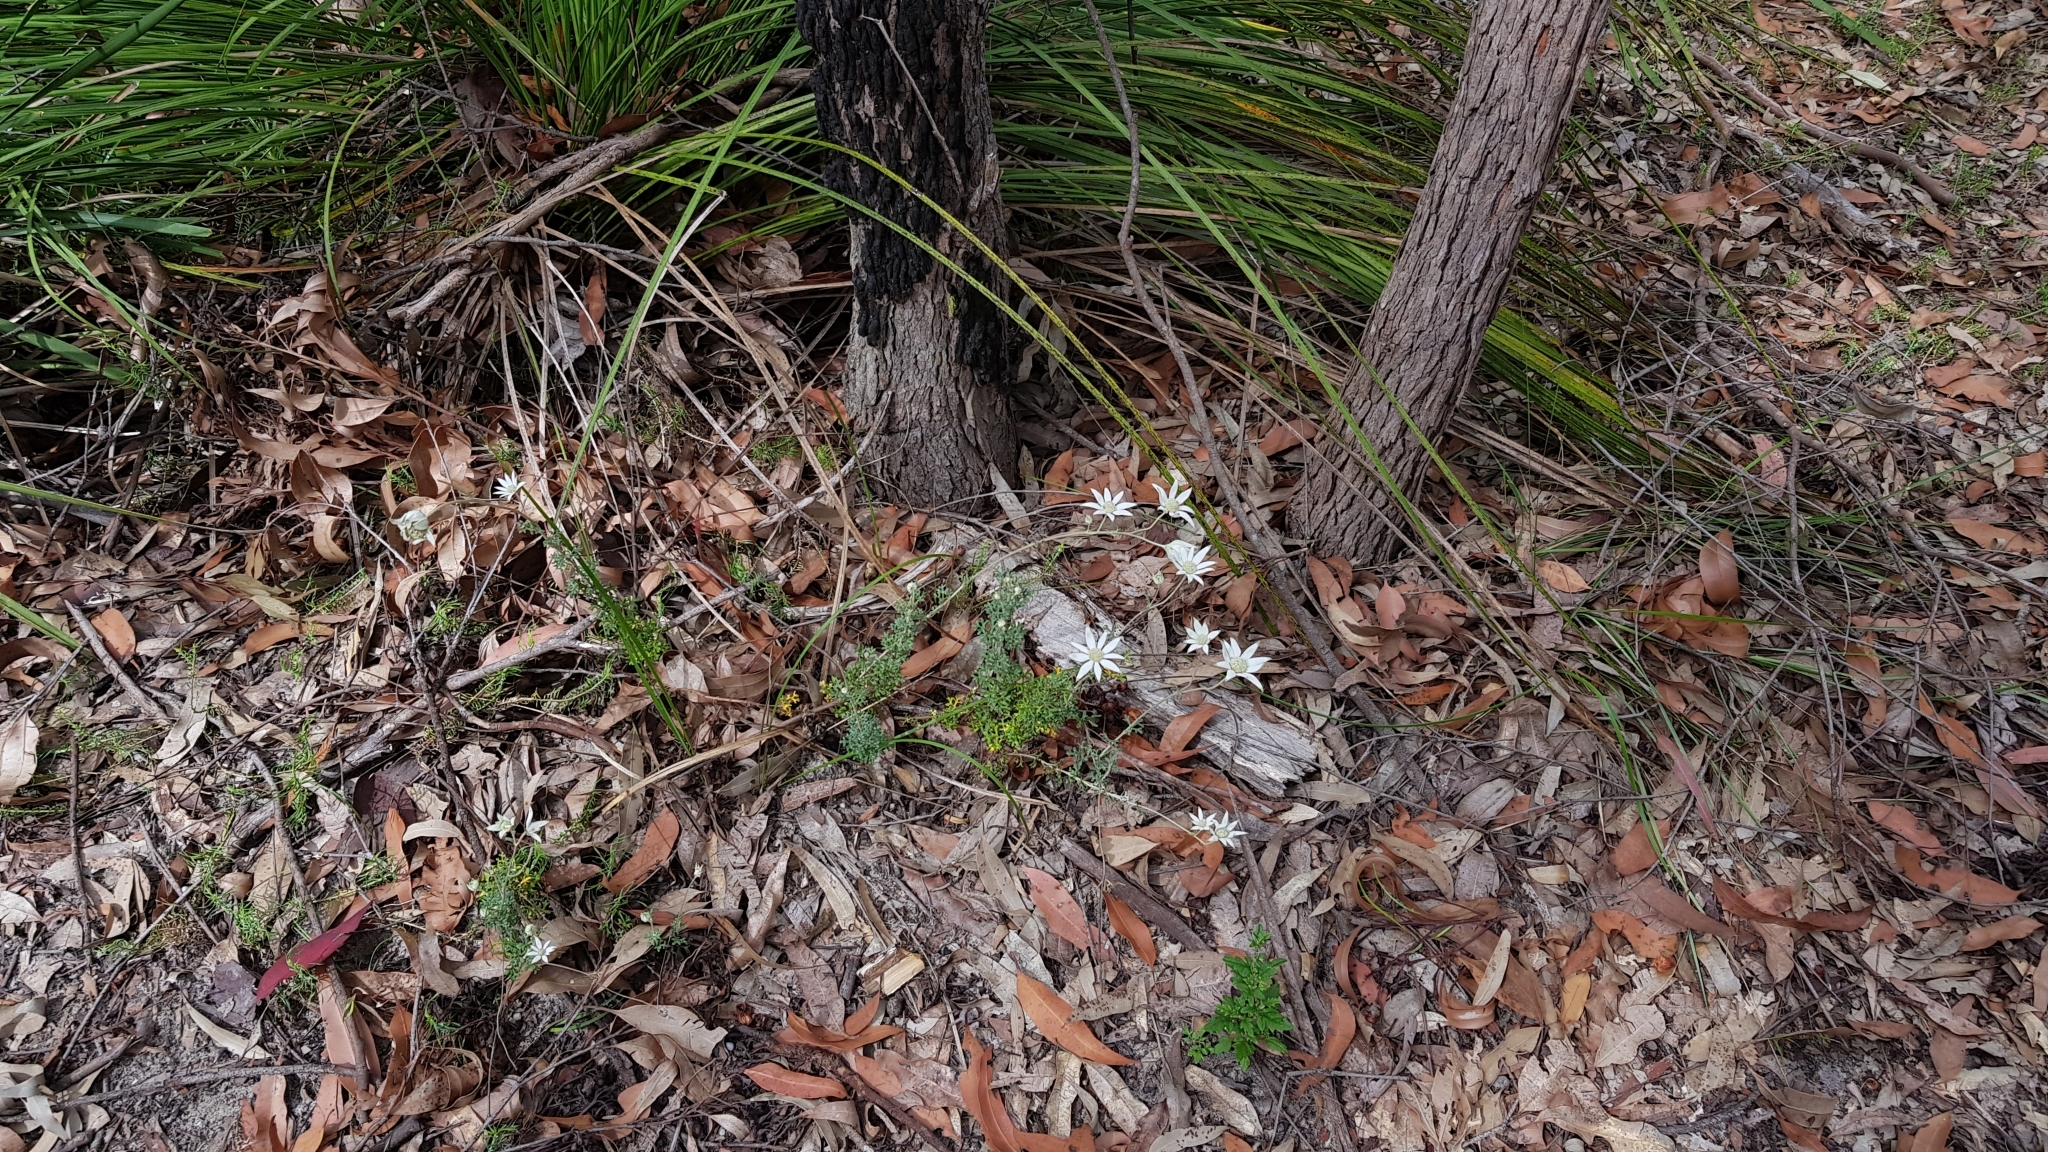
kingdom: Plantae
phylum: Tracheophyta
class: Magnoliopsida
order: Apiales
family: Apiaceae
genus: Actinotus
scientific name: Actinotus helianthi
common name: Flannel-flower
